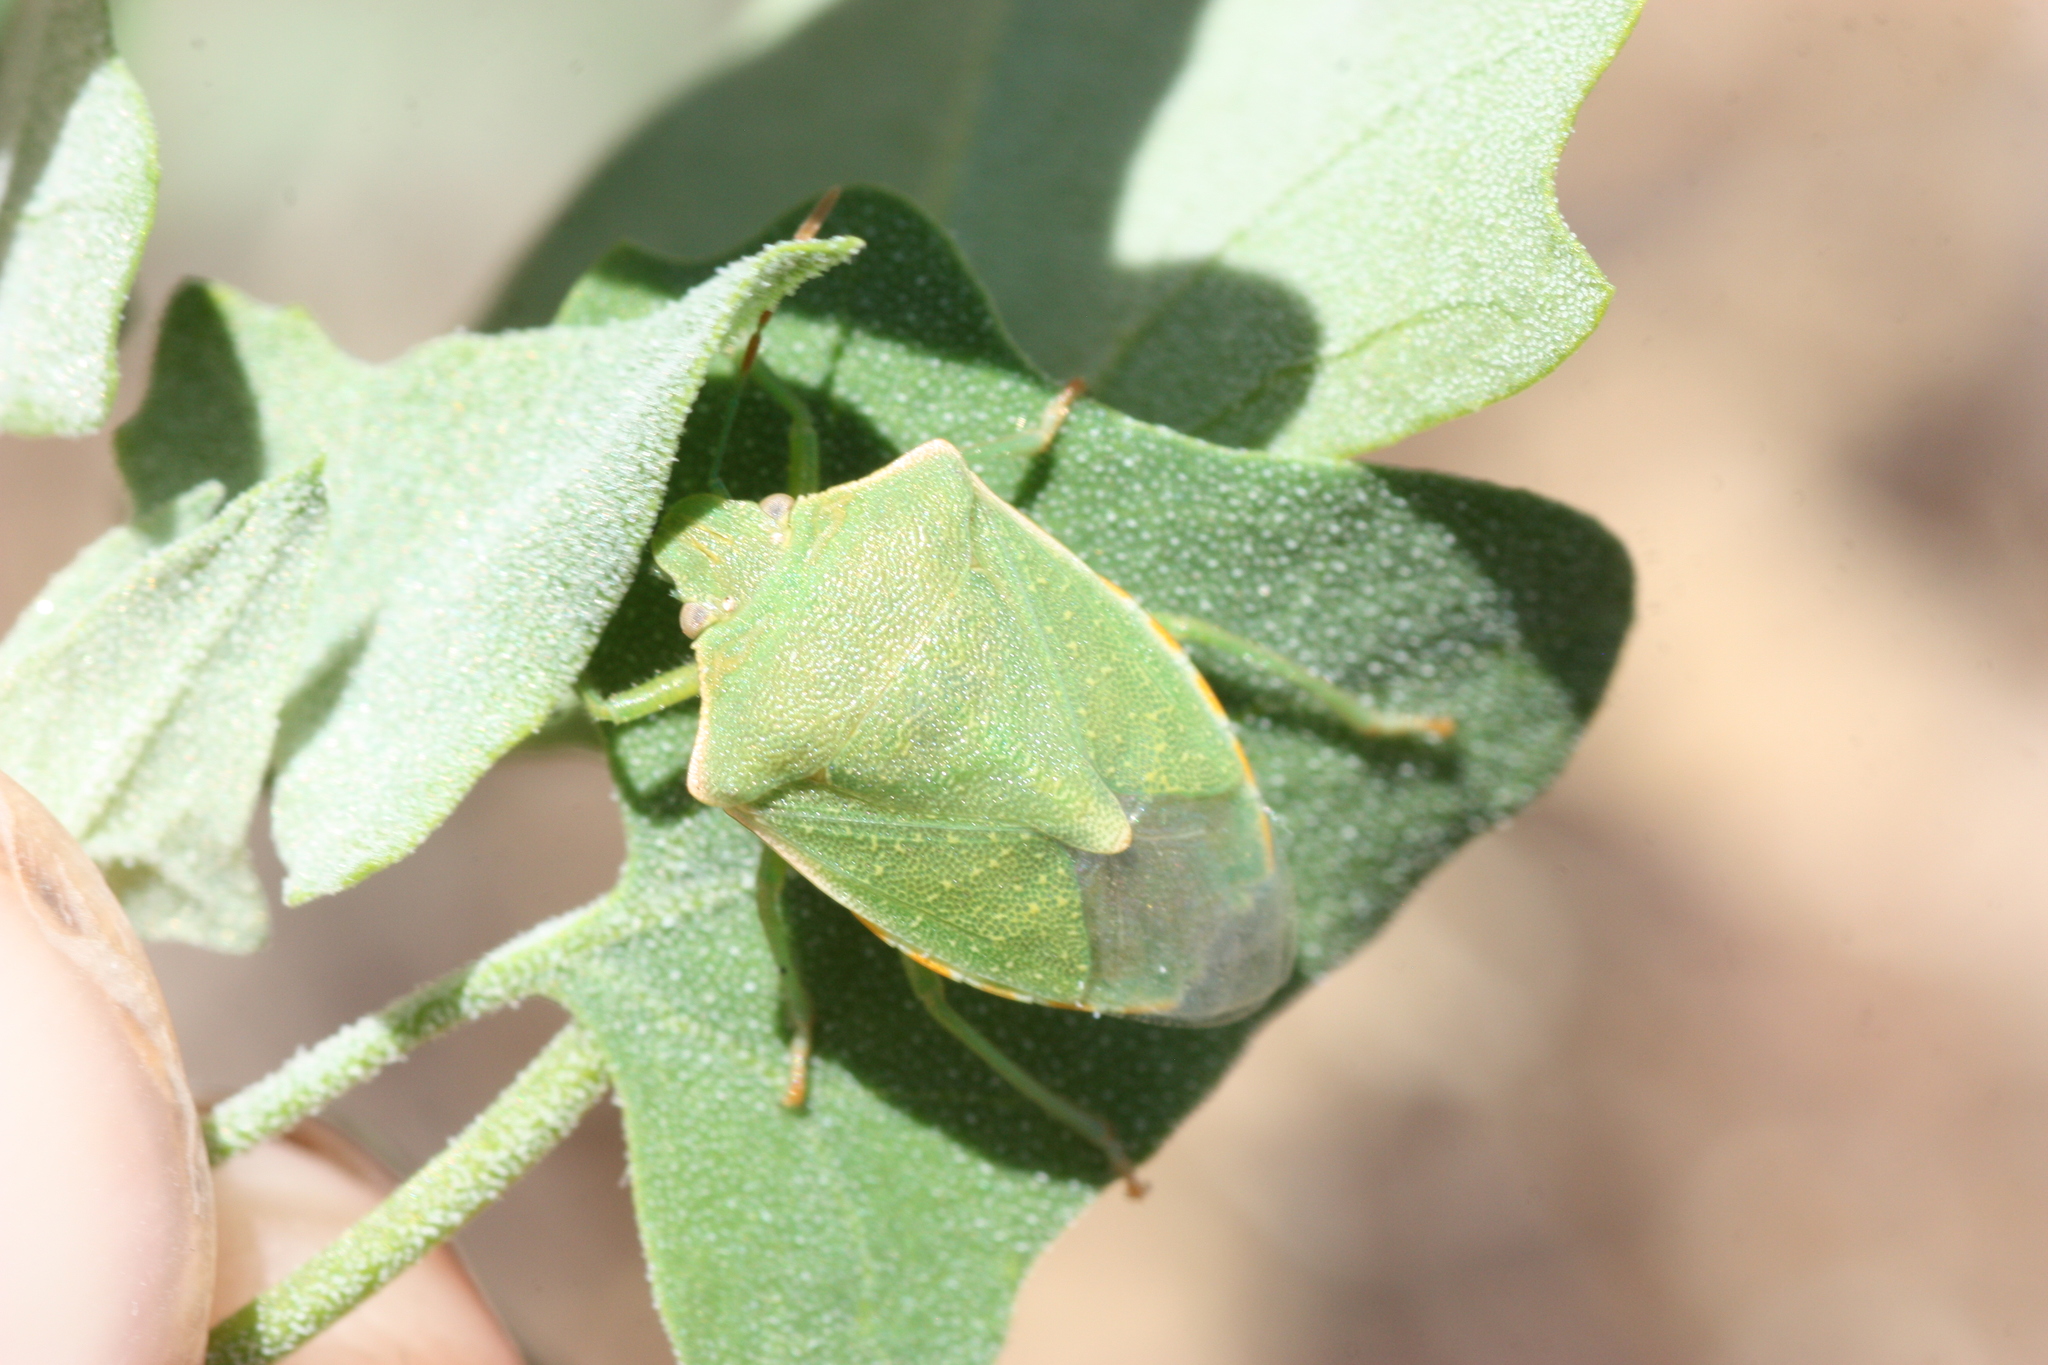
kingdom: Animalia
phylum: Arthropoda
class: Insecta
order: Hemiptera
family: Pentatomidae
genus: Thyanta
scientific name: Thyanta accerra
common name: Stink bug
